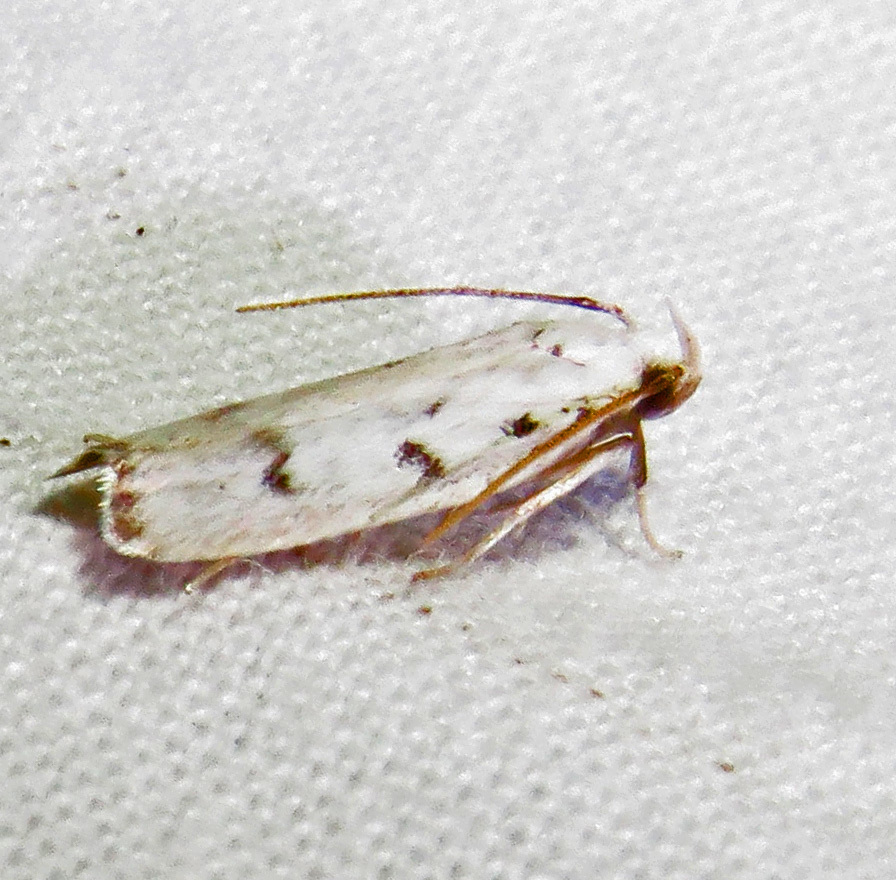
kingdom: Animalia
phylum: Arthropoda
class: Insecta
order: Lepidoptera
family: Autostichidae
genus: Glyphidocera
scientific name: Glyphidocera lactiflosella
